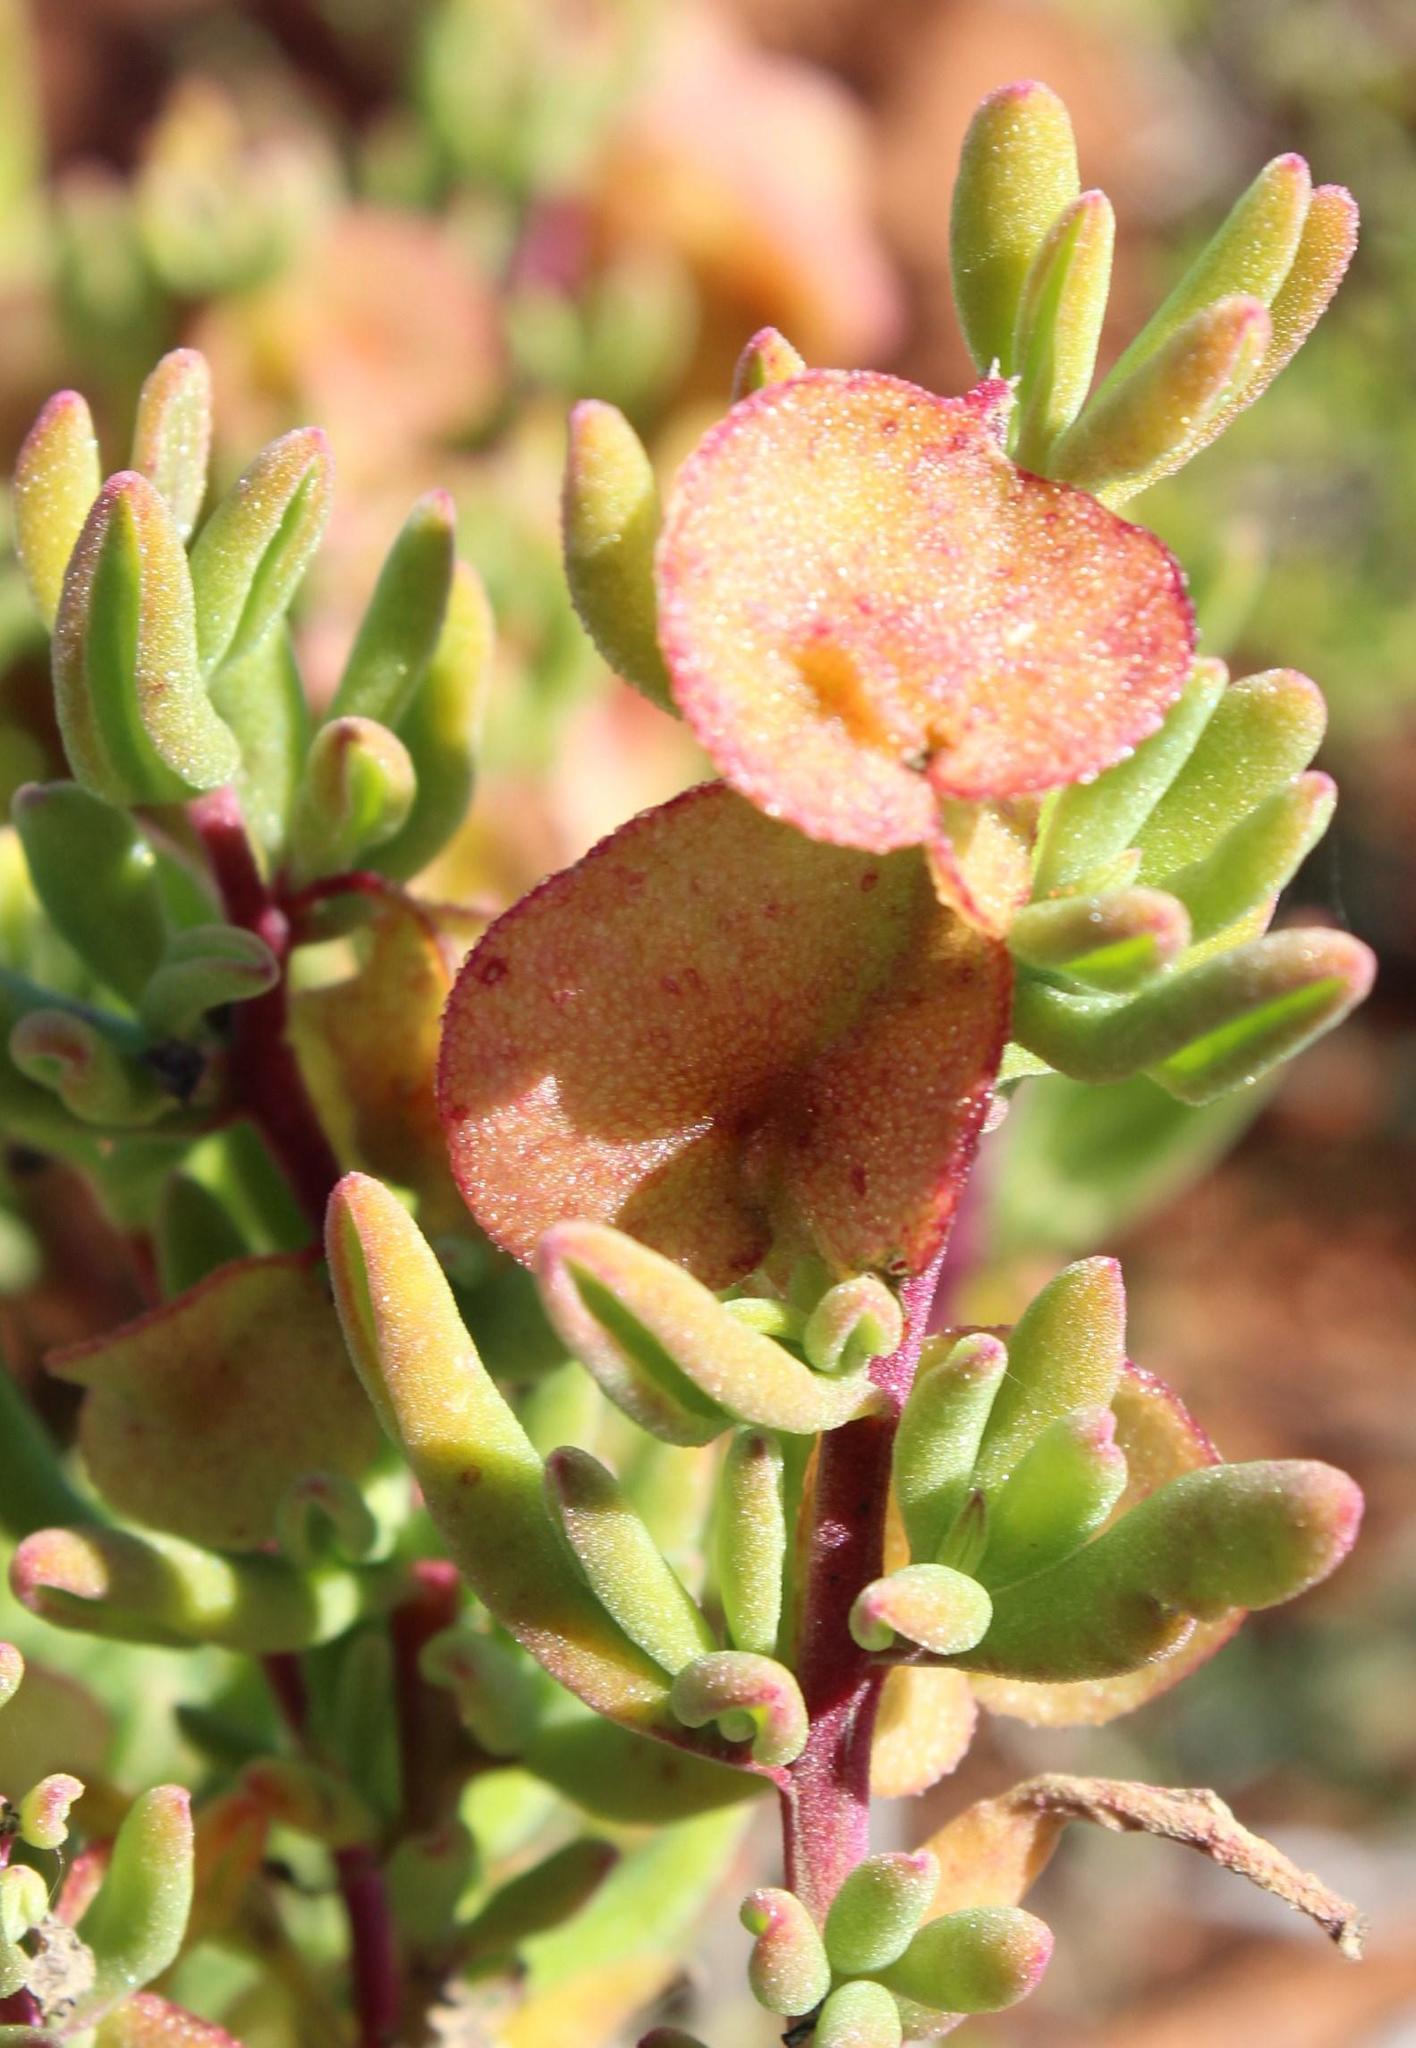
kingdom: Plantae
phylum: Tracheophyta
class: Magnoliopsida
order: Caryophyllales
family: Aizoaceae
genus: Tetragonia
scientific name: Tetragonia fruticosa
